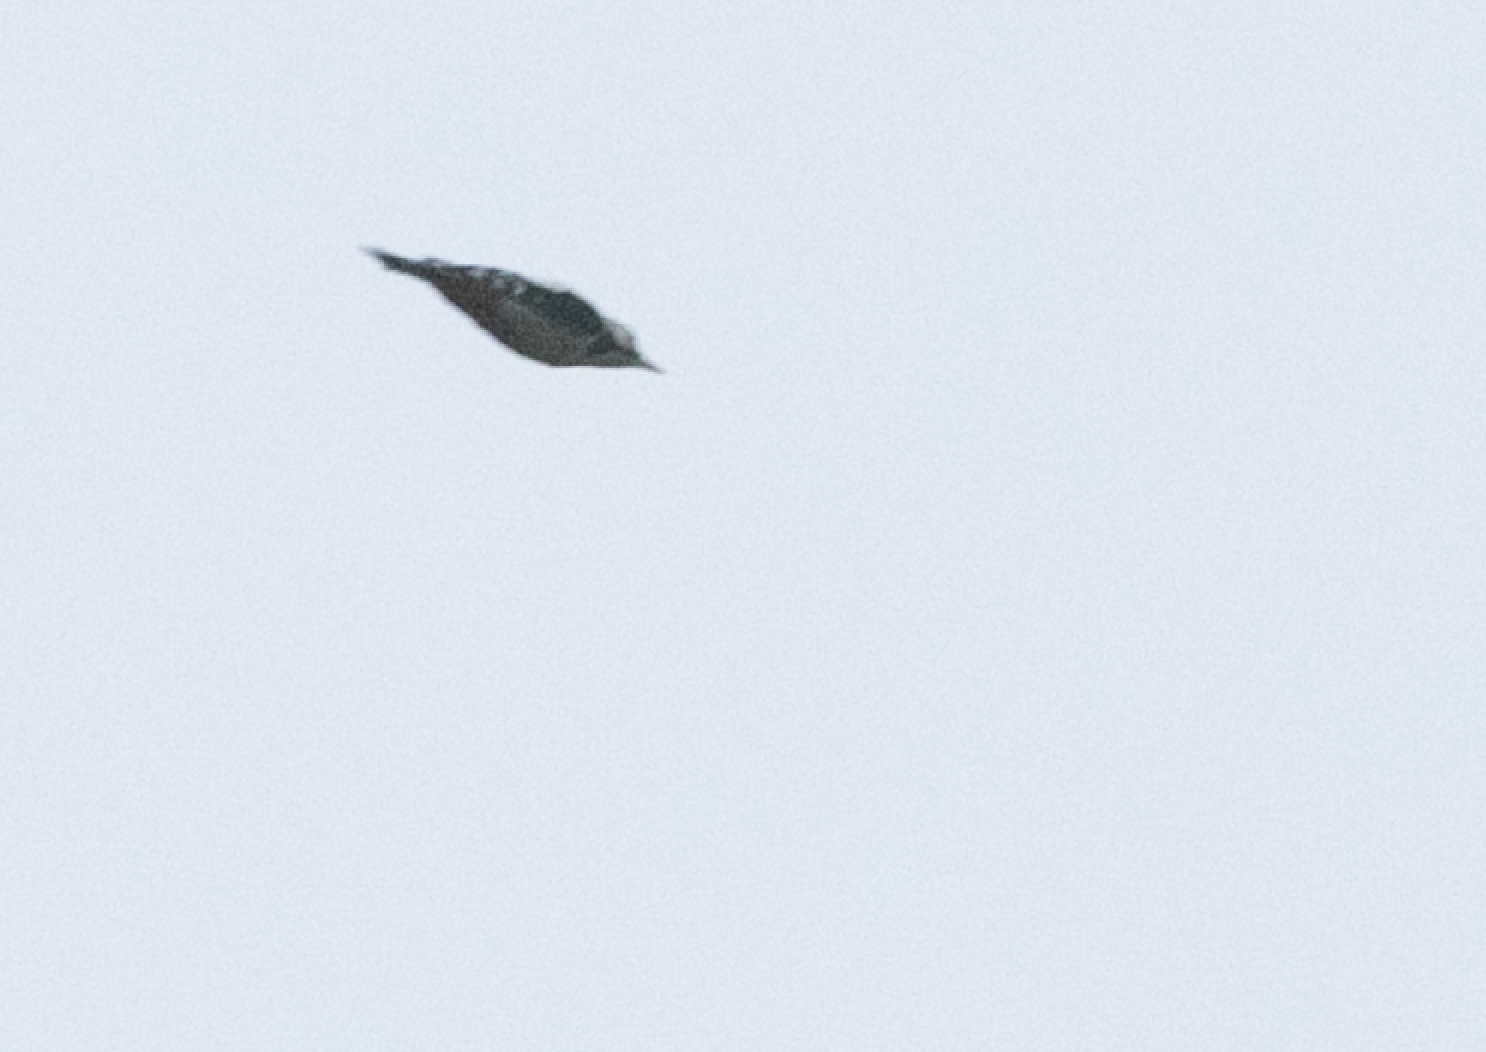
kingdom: Animalia
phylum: Chordata
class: Aves
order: Piciformes
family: Picidae
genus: Dendrocopos
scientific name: Dendrocopos major
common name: Great spotted woodpecker
